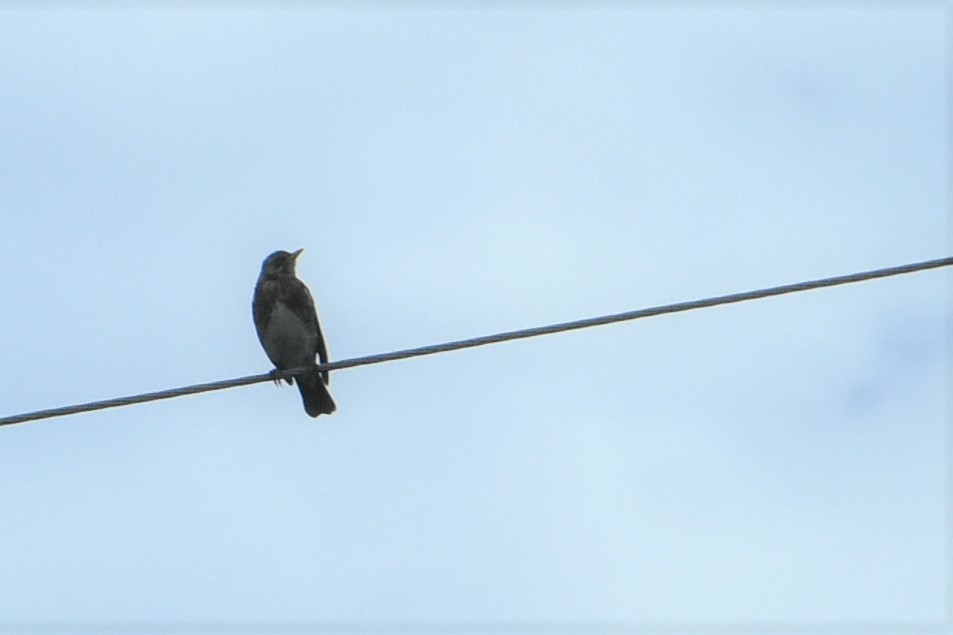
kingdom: Animalia
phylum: Chordata
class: Aves
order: Passeriformes
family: Turdidae
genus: Turdus
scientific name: Turdus pilaris
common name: Fieldfare
